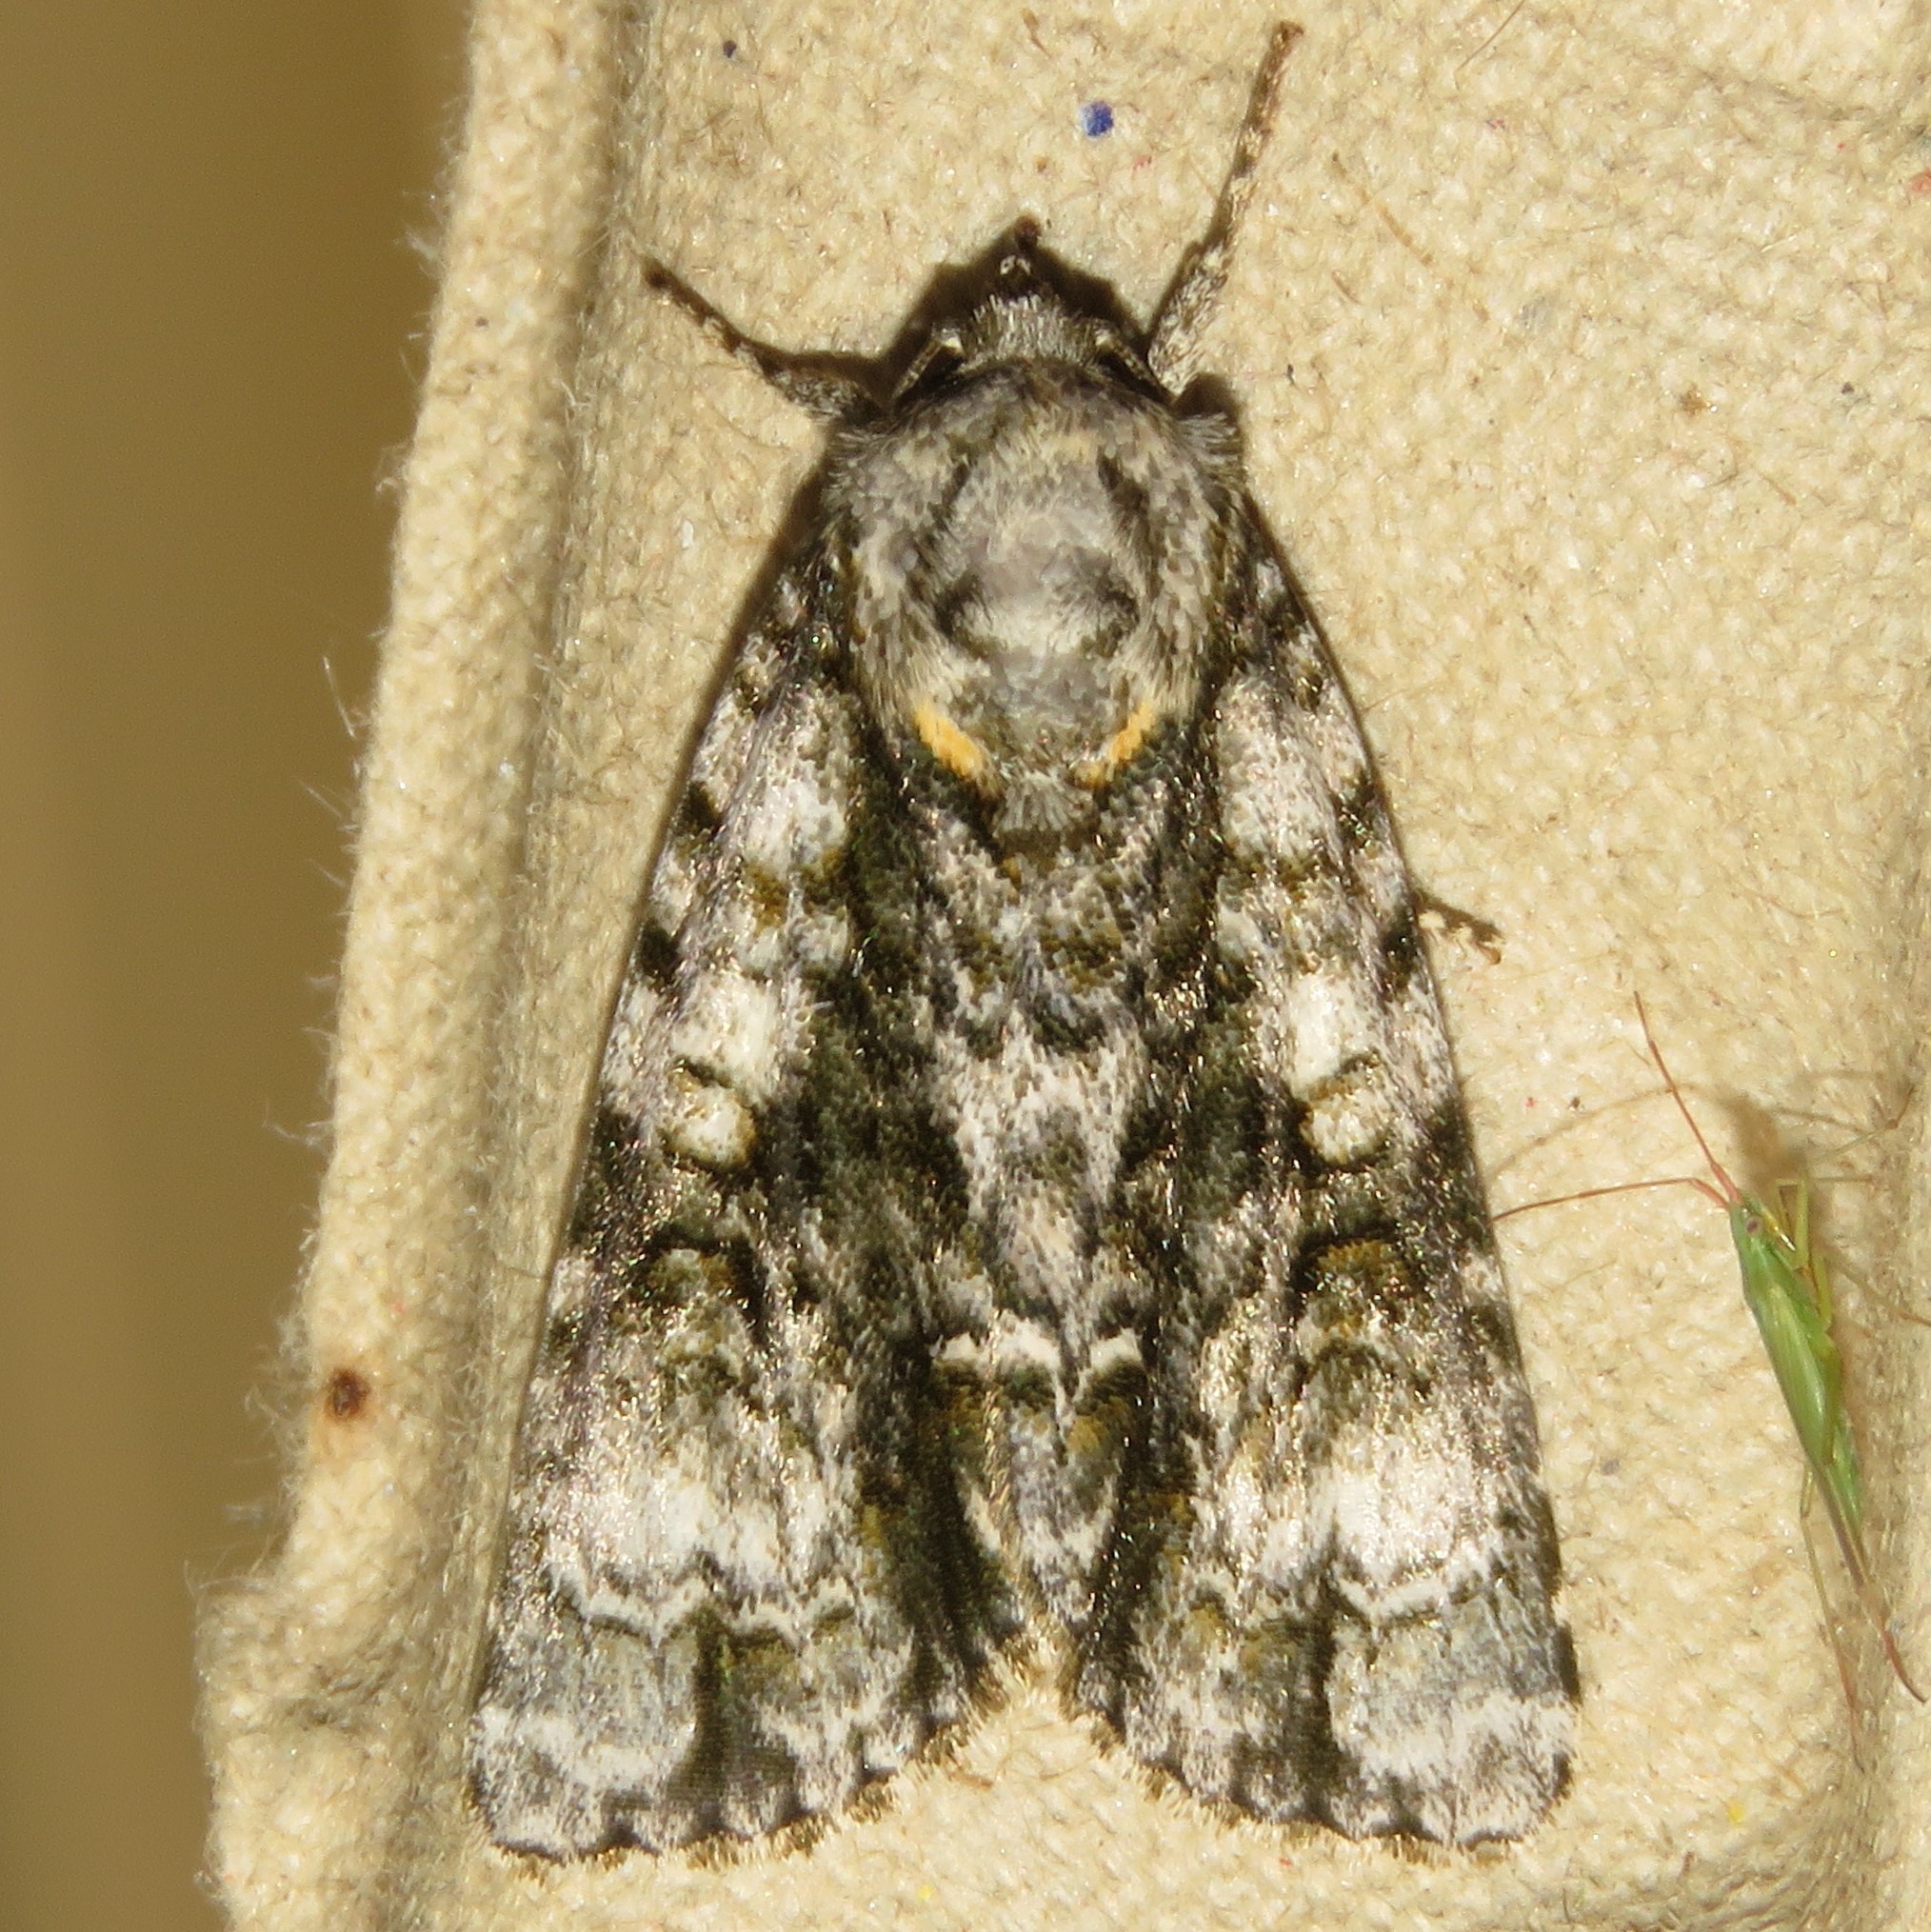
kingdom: Animalia
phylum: Arthropoda
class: Insecta
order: Lepidoptera
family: Noctuidae
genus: Acronicta
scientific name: Acronicta superans
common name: Splendid dagger
